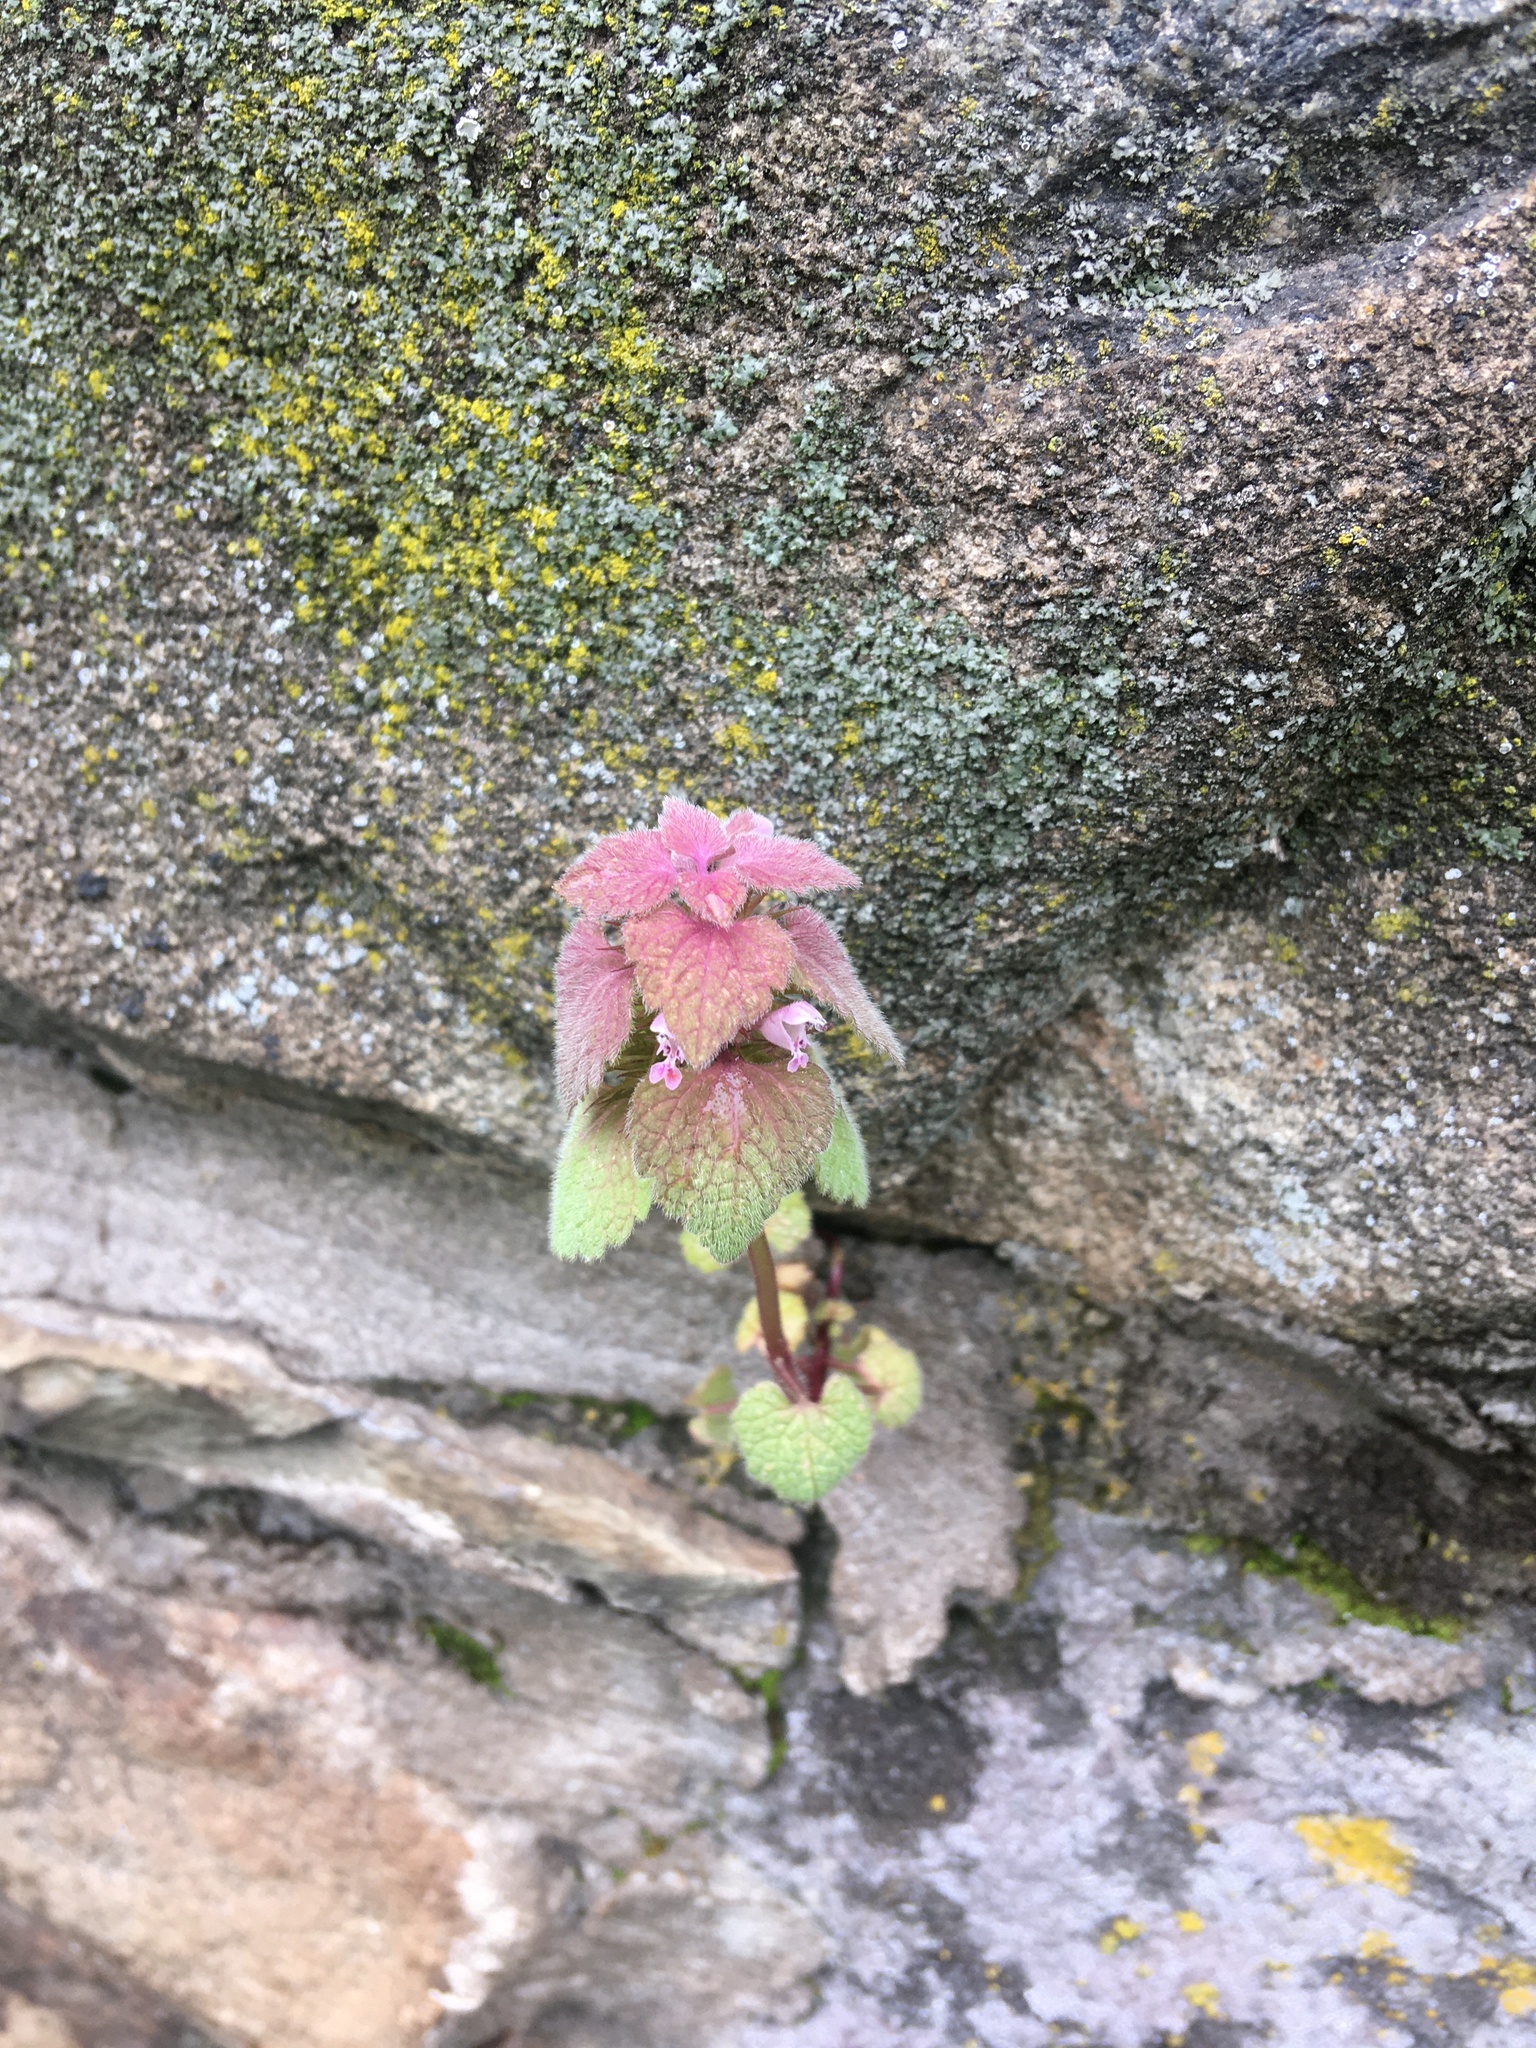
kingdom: Plantae
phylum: Tracheophyta
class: Magnoliopsida
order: Lamiales
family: Lamiaceae
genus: Lamium
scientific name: Lamium purpureum
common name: Red dead-nettle
